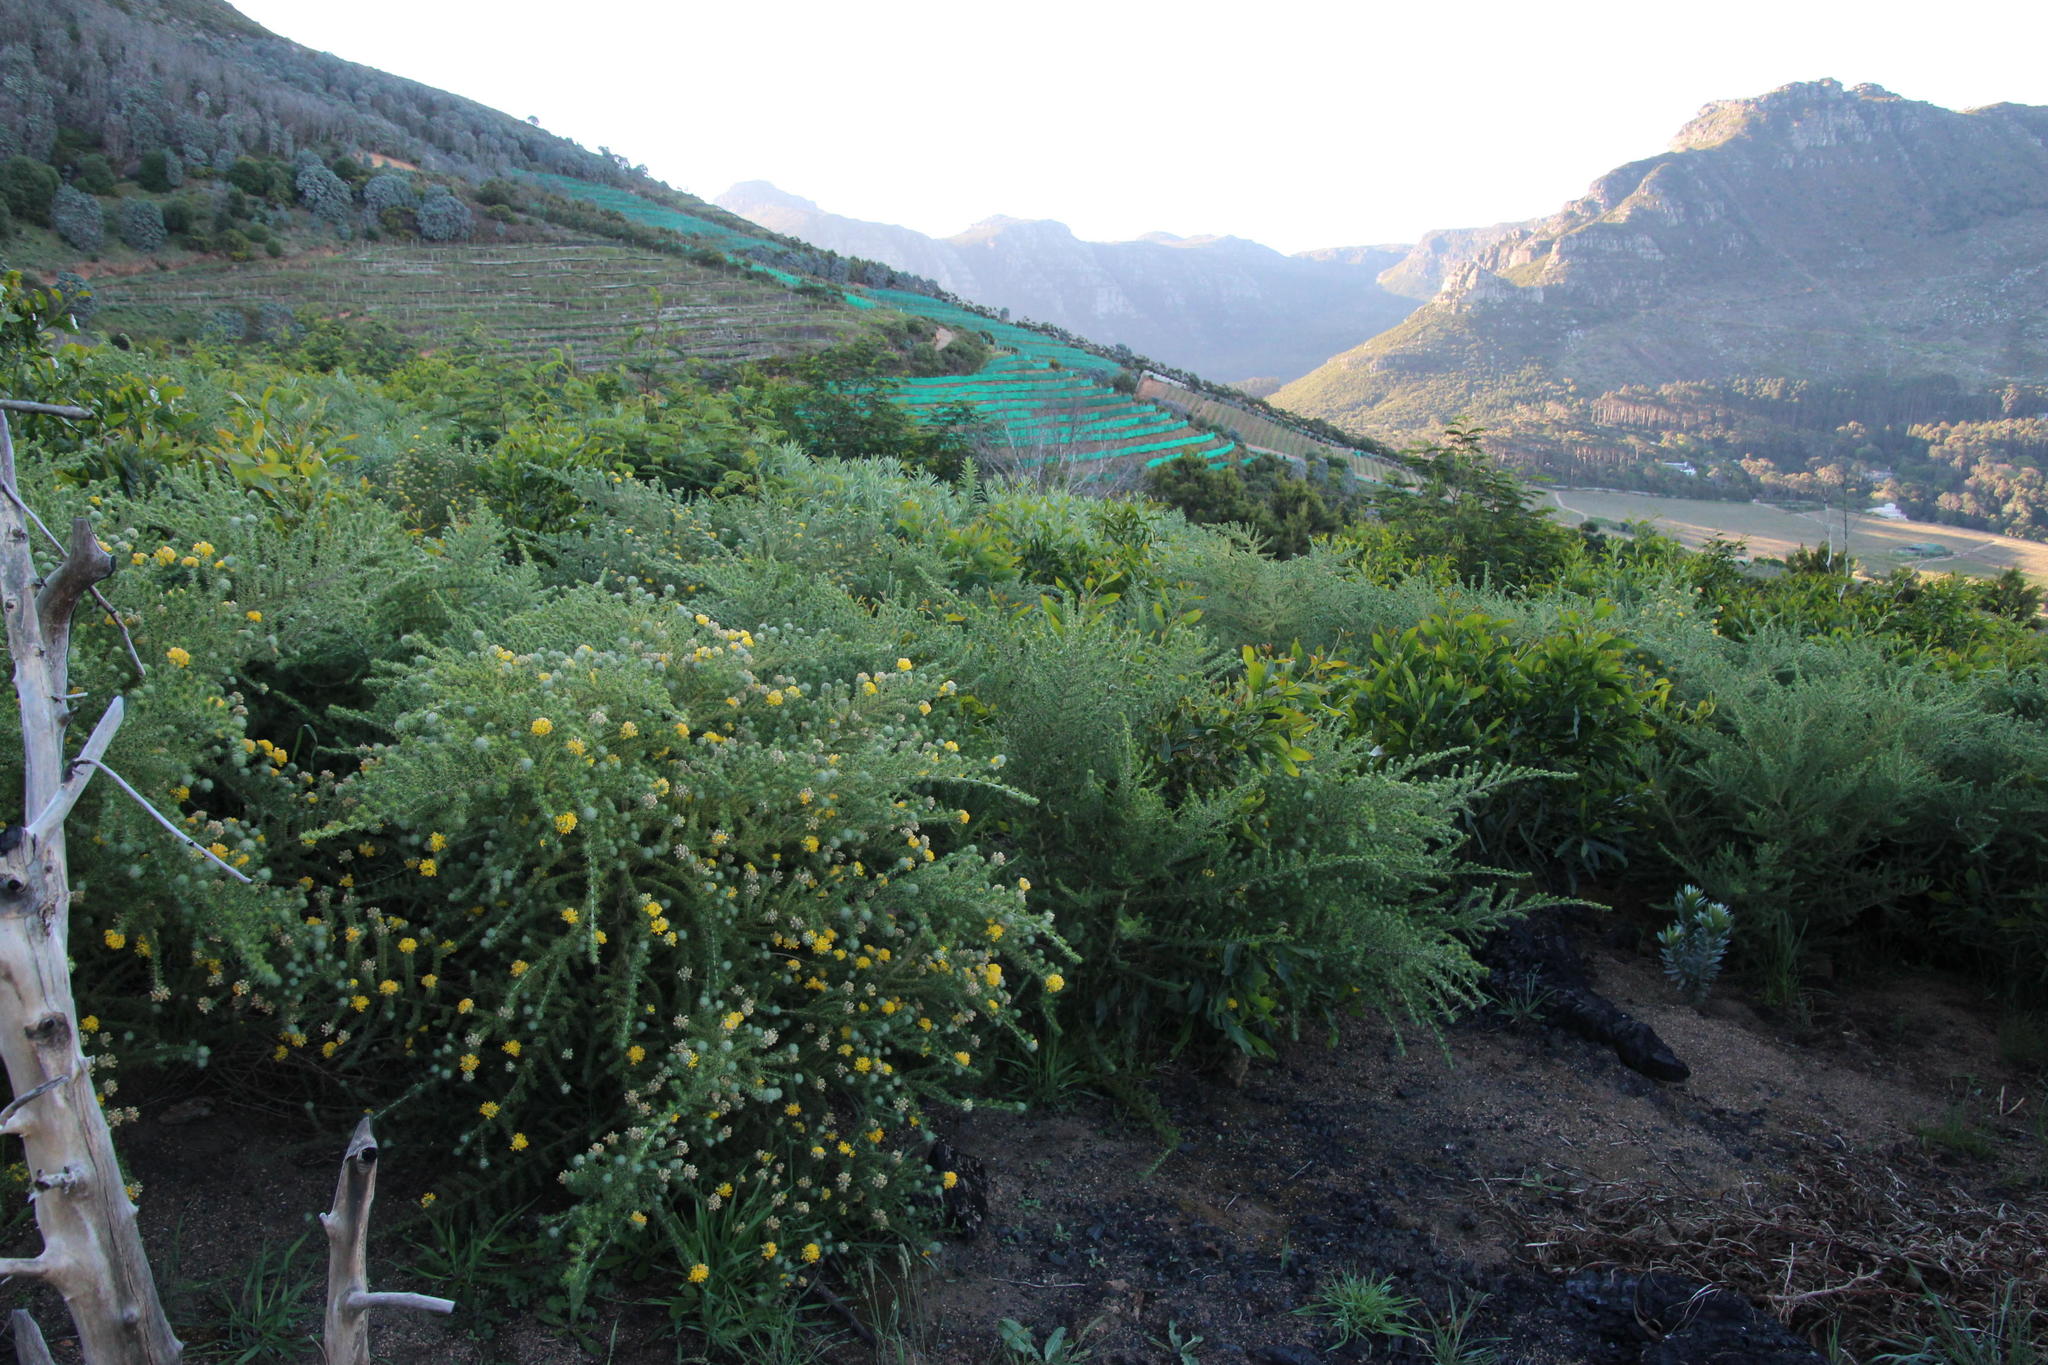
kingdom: Plantae
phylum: Tracheophyta
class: Magnoliopsida
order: Fabales
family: Fabaceae
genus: Acacia
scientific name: Acacia saligna
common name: Orange wattle
